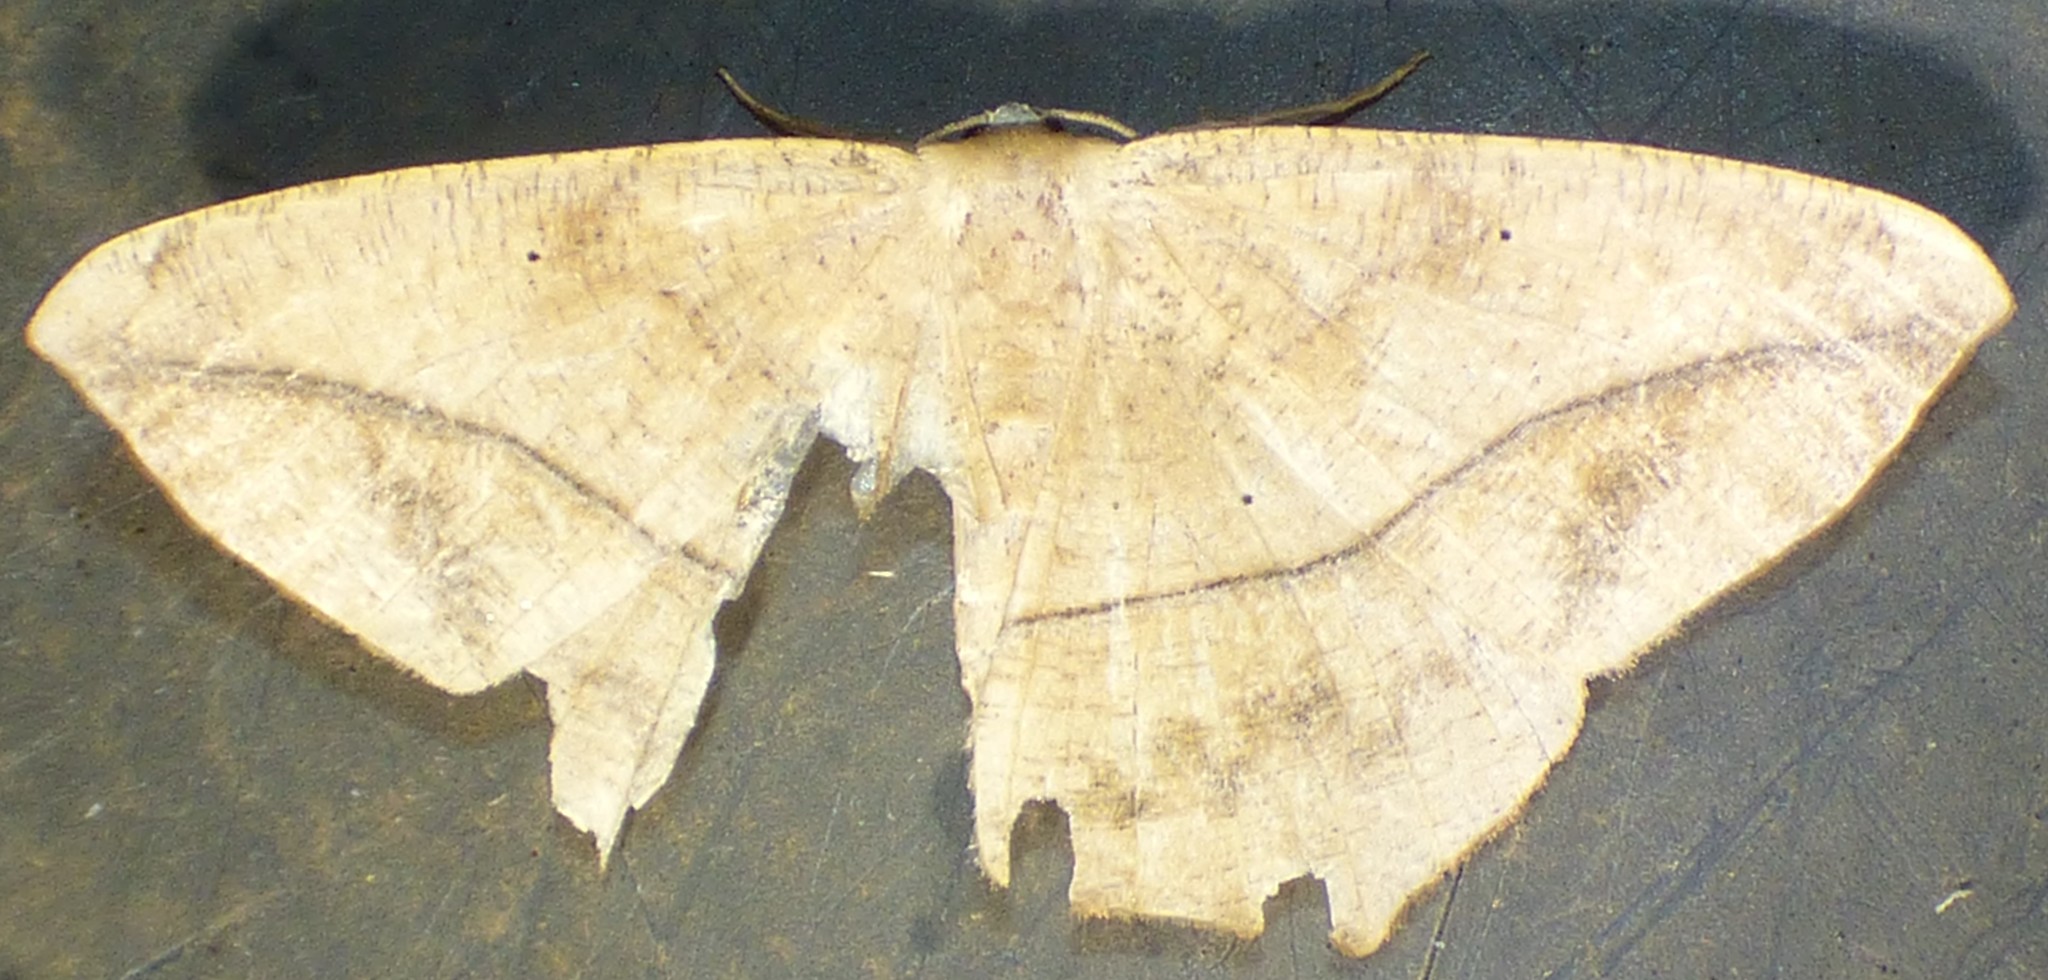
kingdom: Animalia
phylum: Arthropoda
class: Insecta
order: Lepidoptera
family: Geometridae
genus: Prochoerodes
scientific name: Prochoerodes lineola
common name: Large maple spanworm
